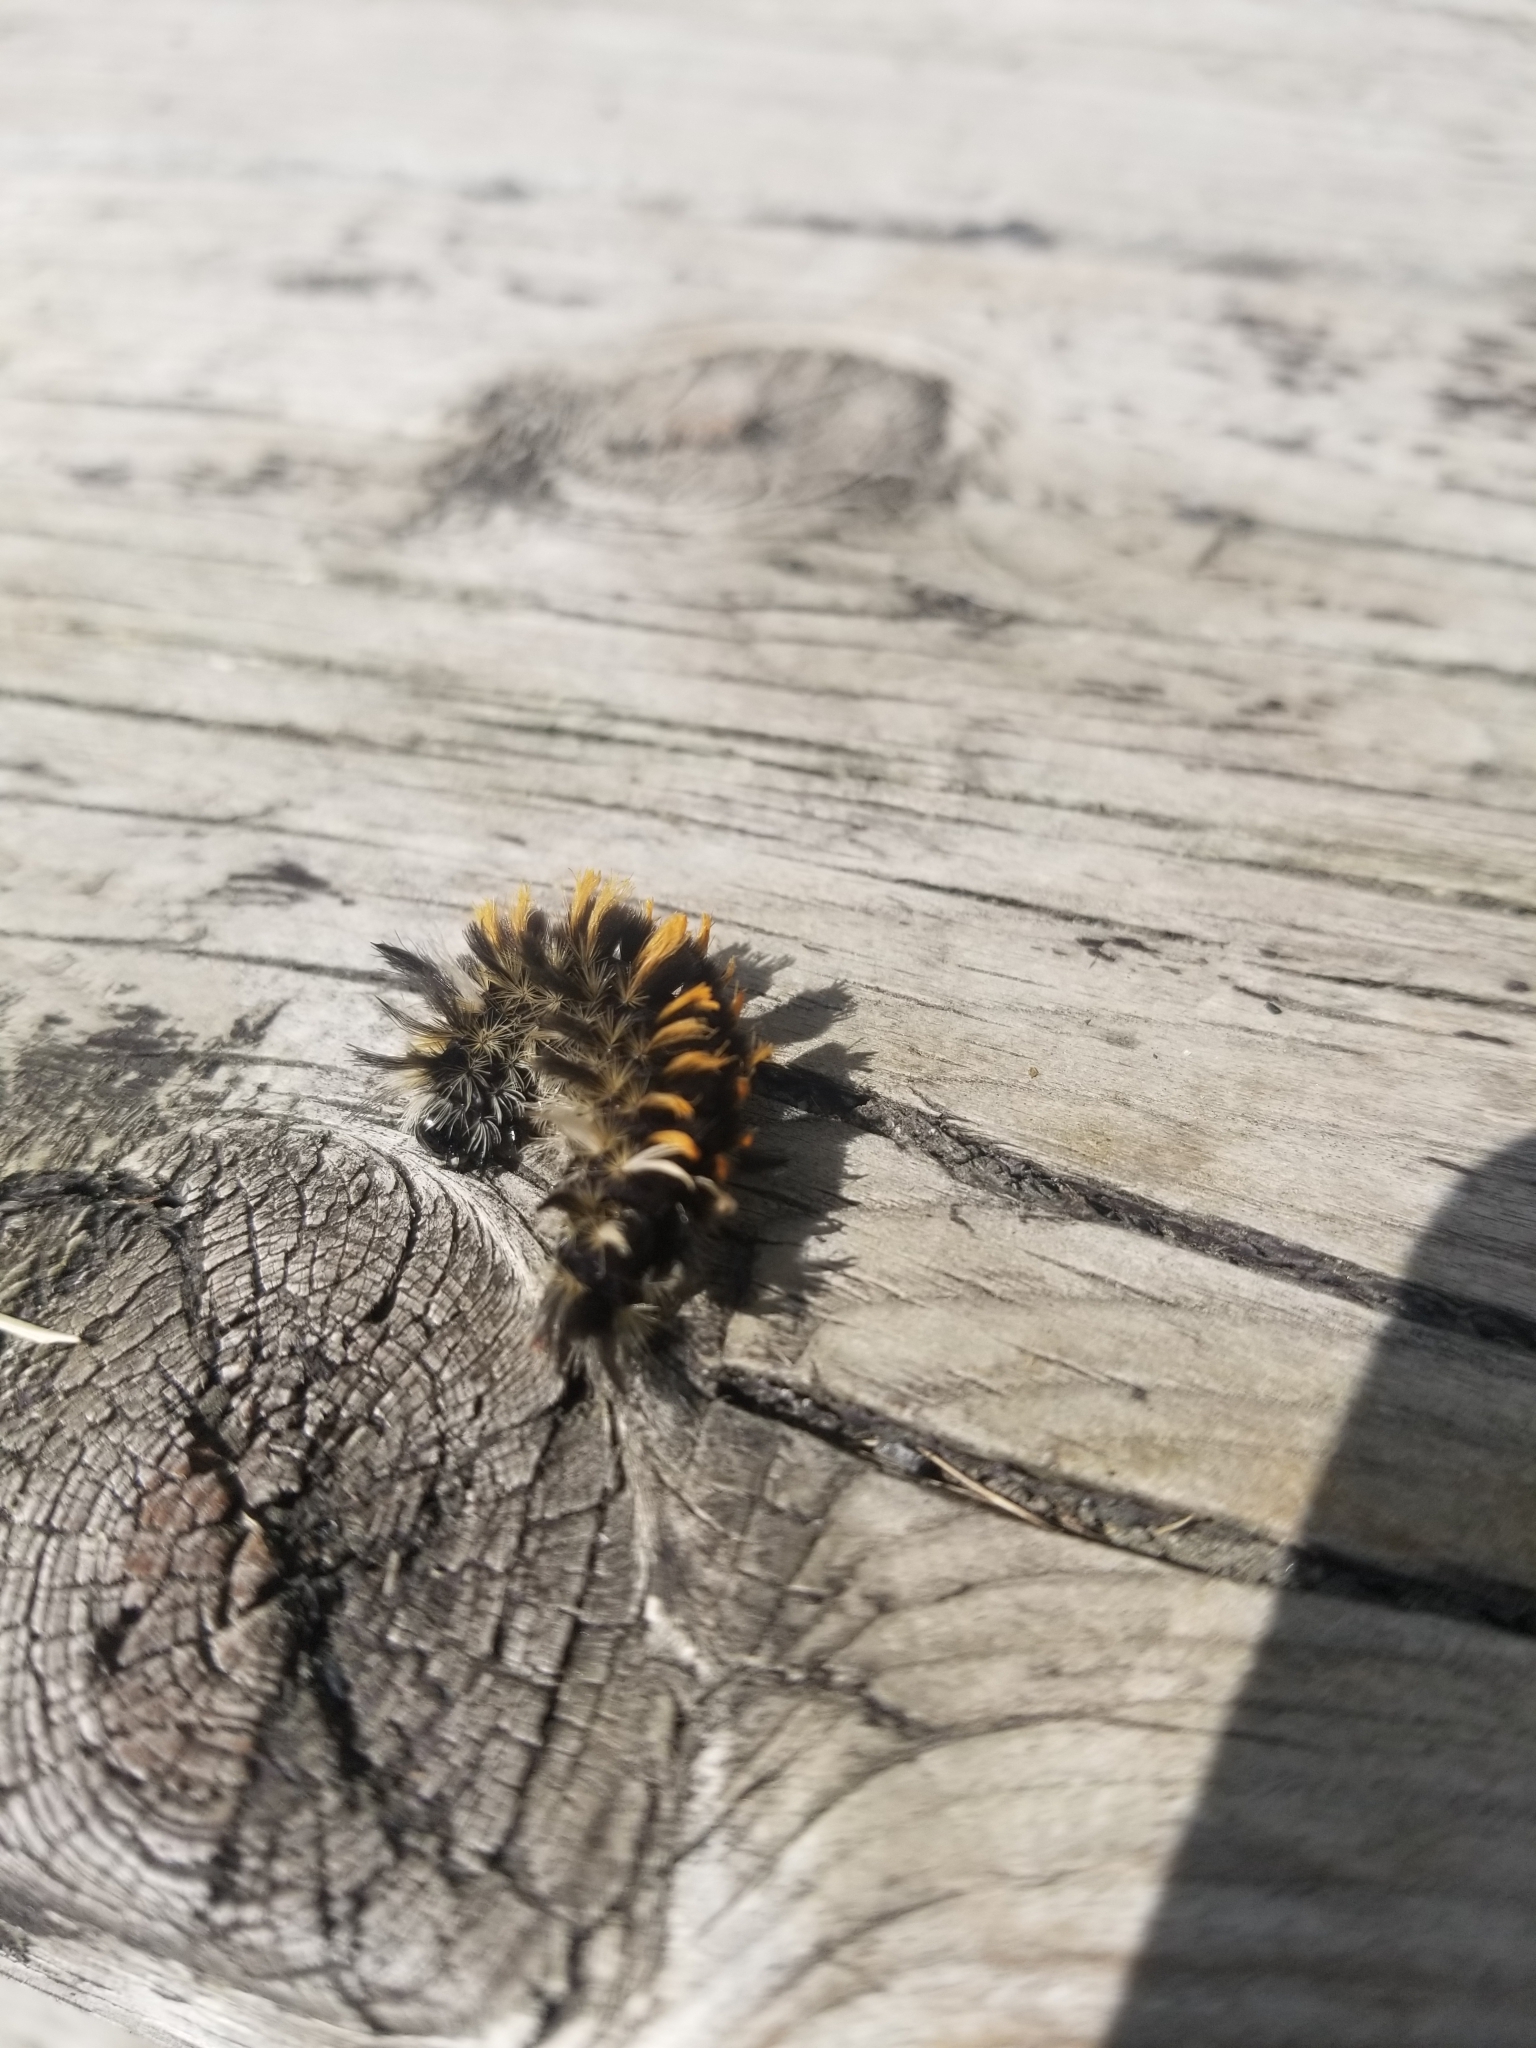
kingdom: Animalia
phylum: Arthropoda
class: Insecta
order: Lepidoptera
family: Erebidae
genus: Euchaetes
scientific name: Euchaetes egle
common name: Milkweed tussock moth
